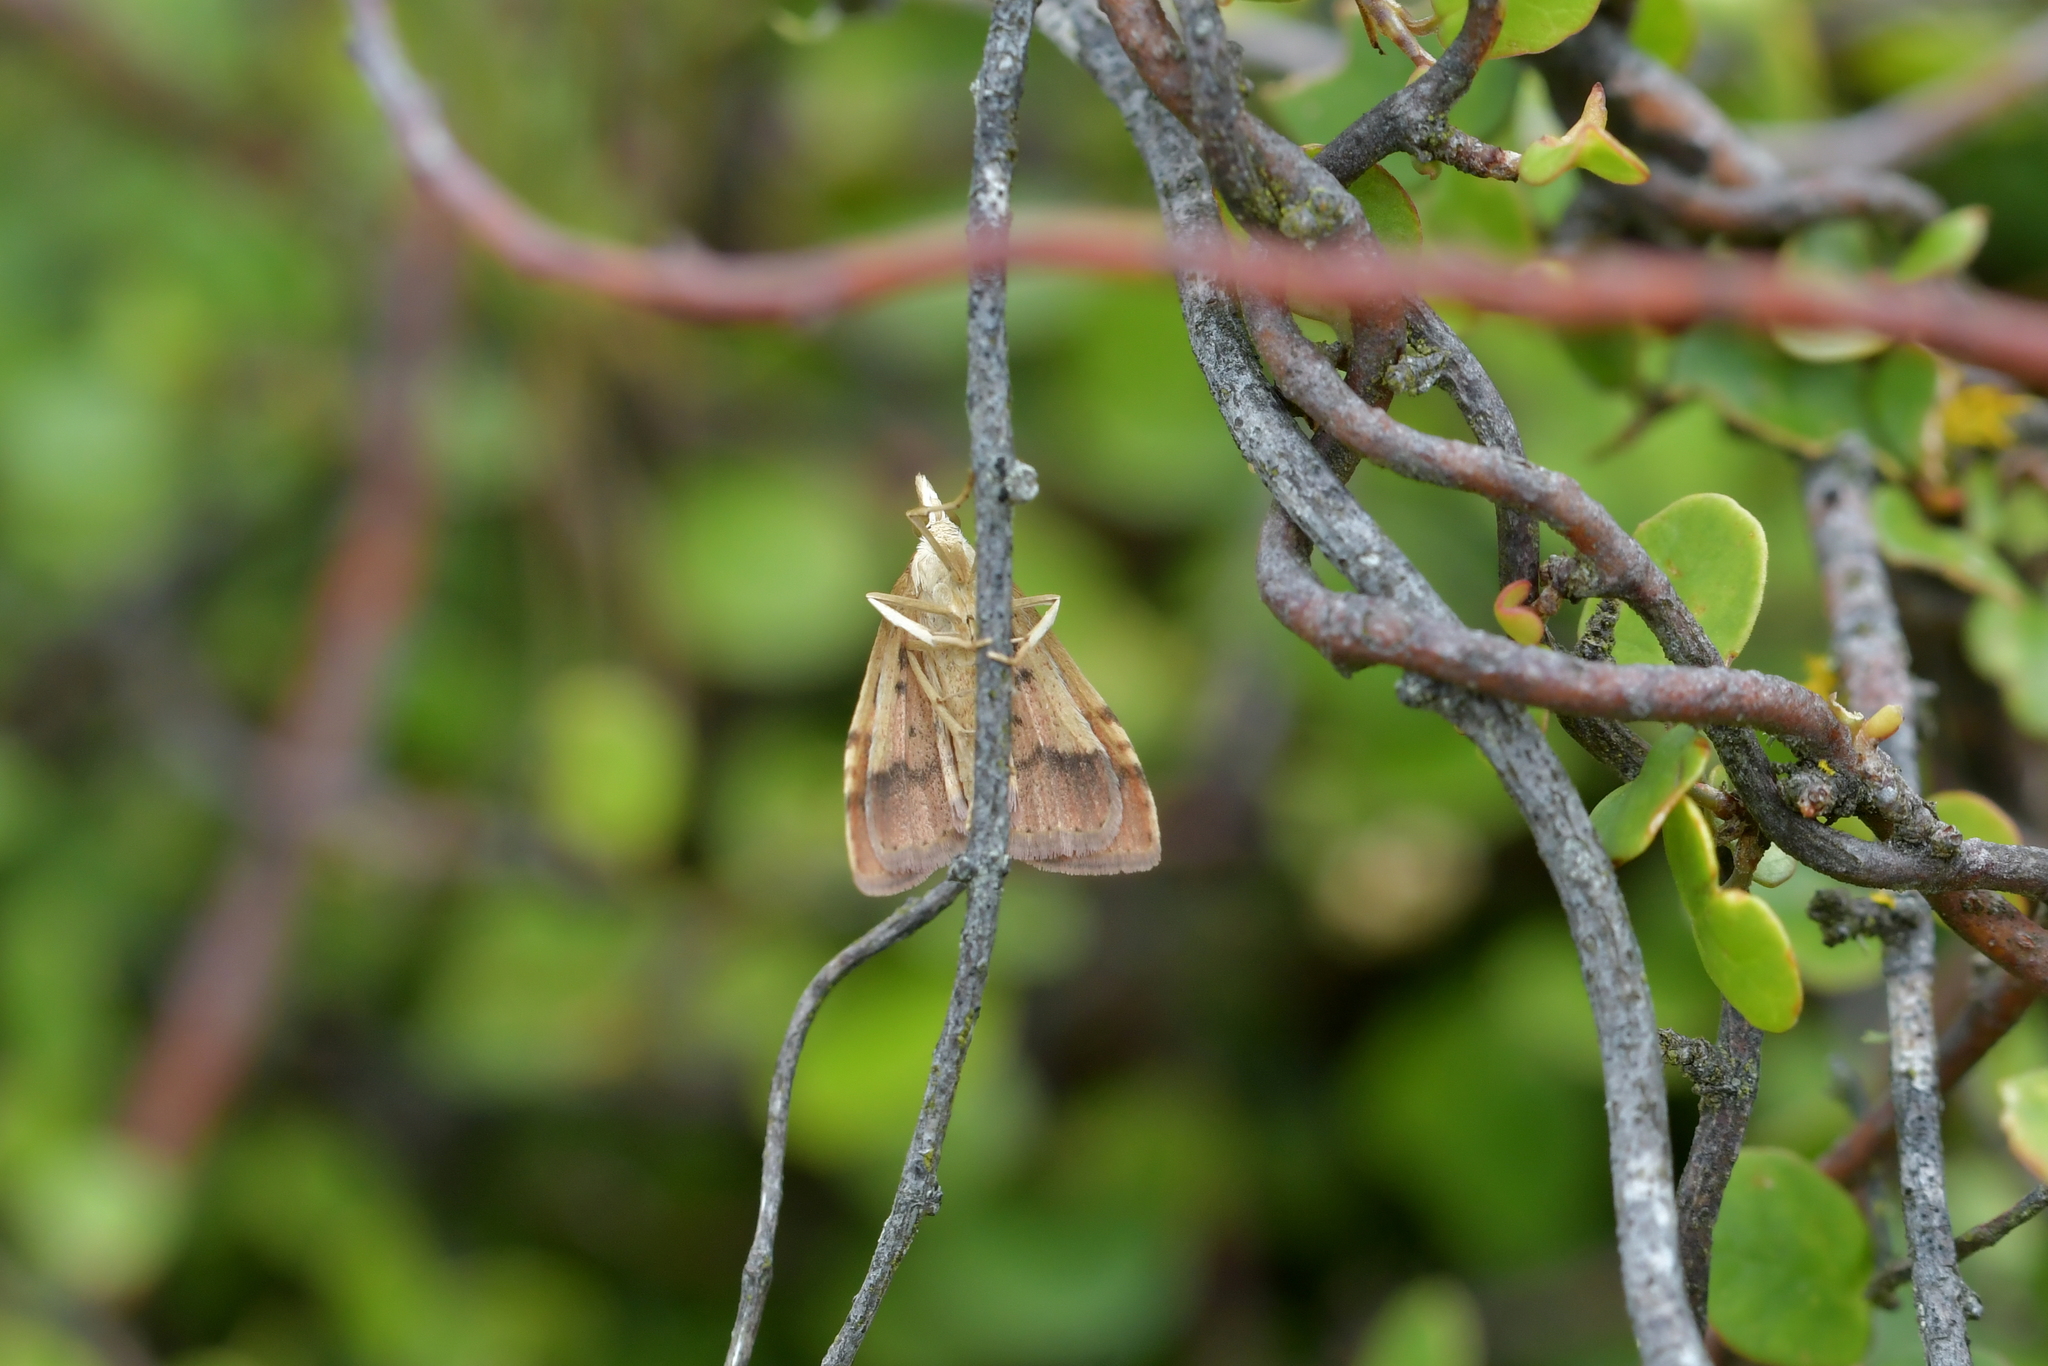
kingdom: Animalia
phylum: Arthropoda
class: Insecta
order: Lepidoptera
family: Crambidae
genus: Udea
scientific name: Udea Mnesictena flavidalis
